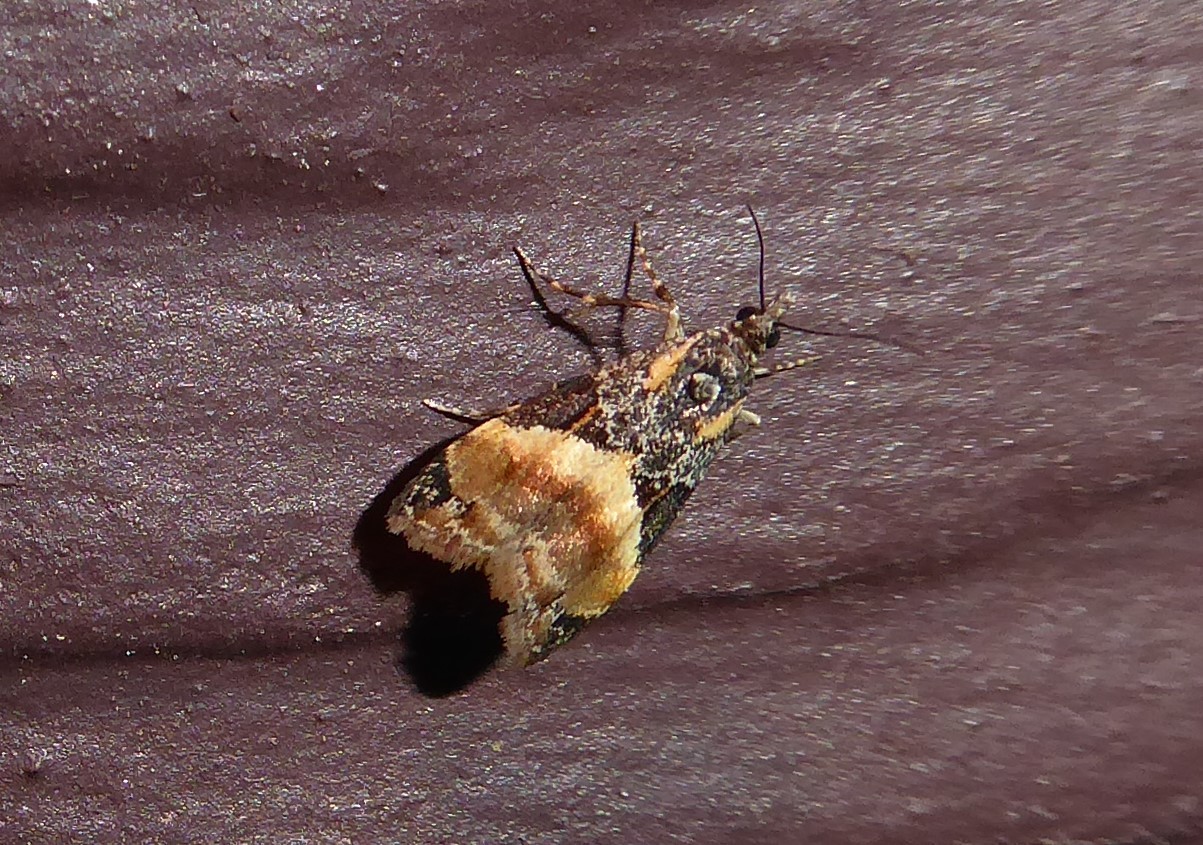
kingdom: Animalia
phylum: Arthropoda
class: Insecta
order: Lepidoptera
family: Crambidae
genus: Eudonia
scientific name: Eudonia chlamydota
